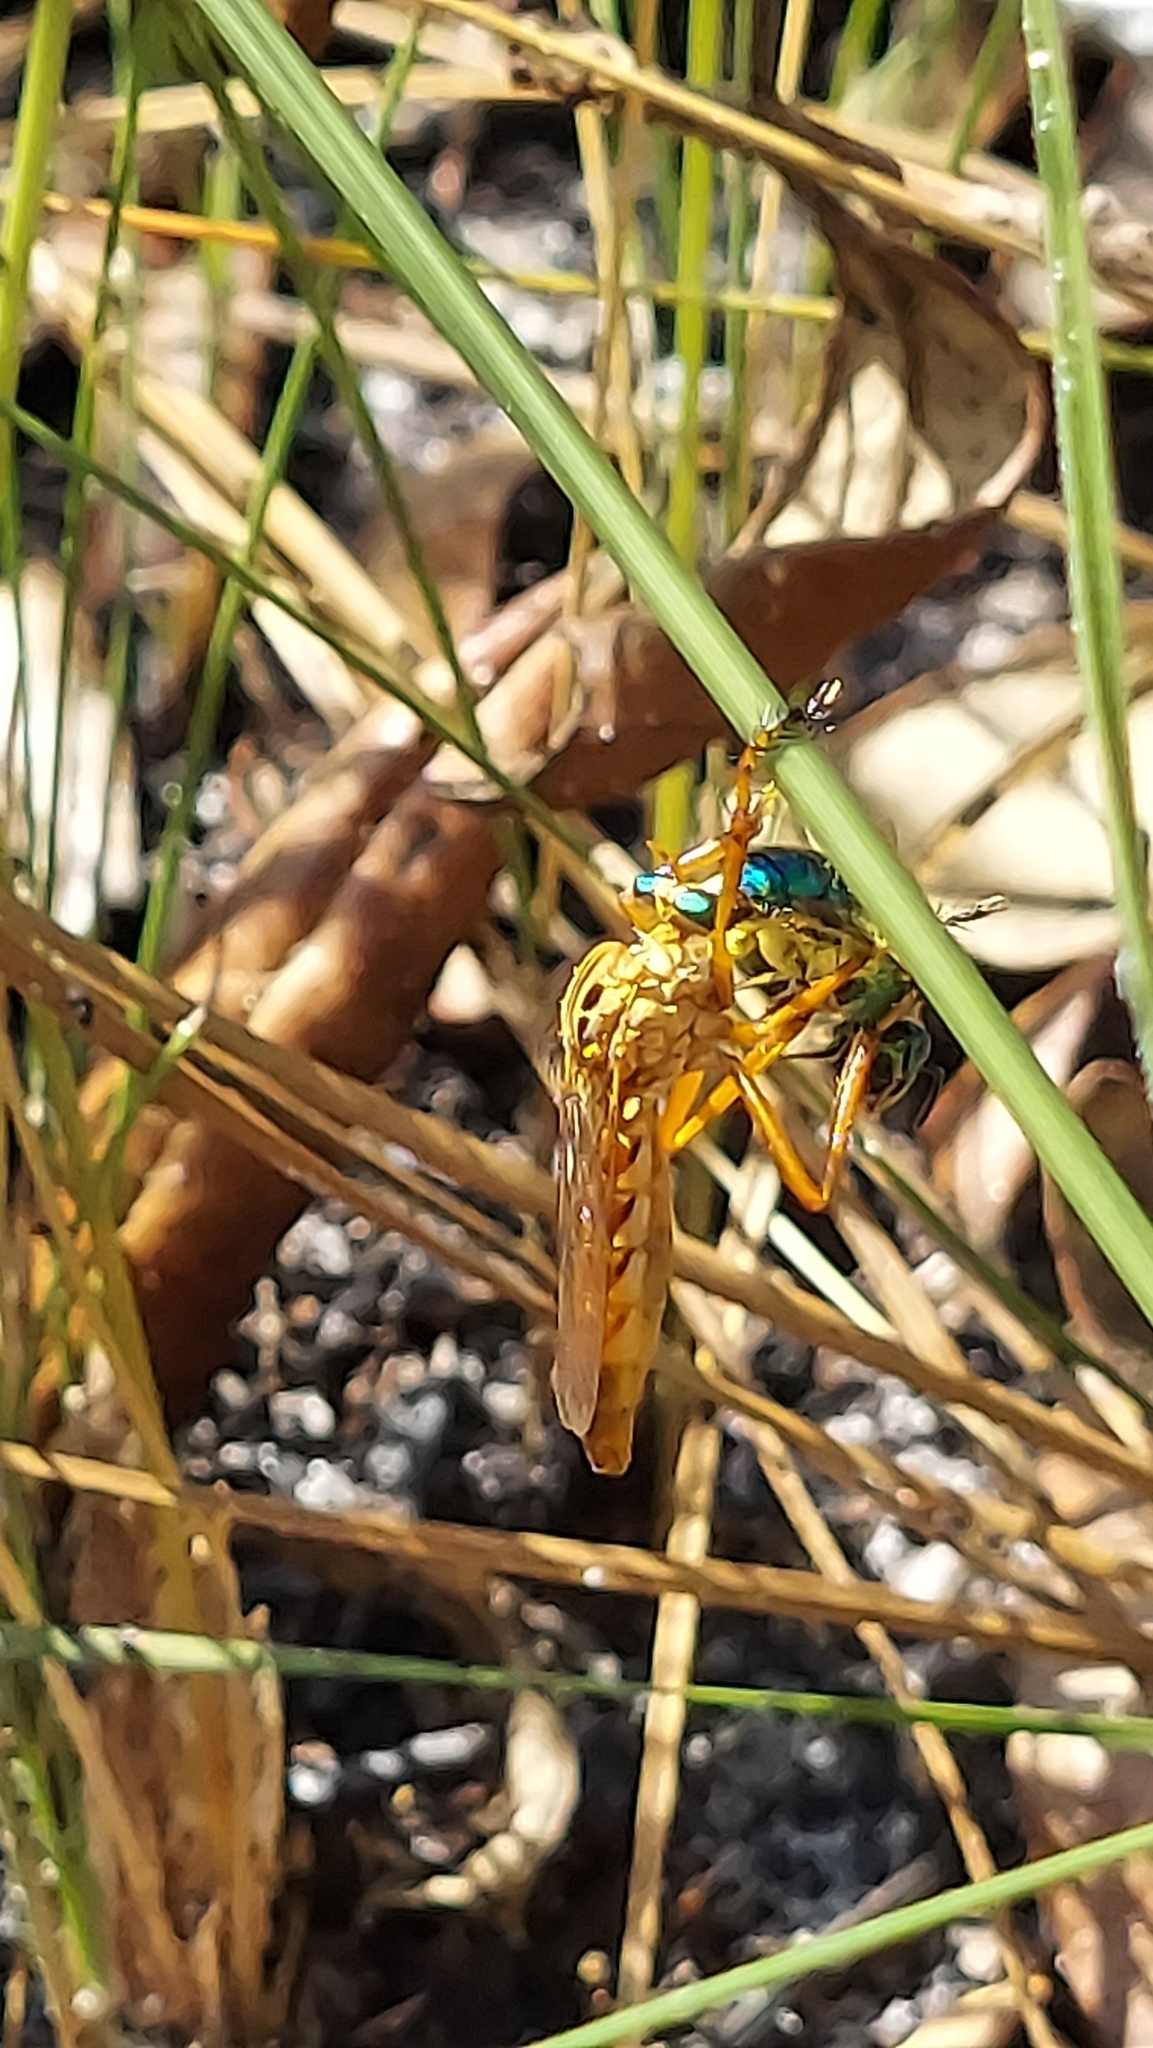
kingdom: Animalia
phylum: Arthropoda
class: Insecta
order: Diptera
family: Asilidae
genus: Diogmites
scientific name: Diogmites esuriens
